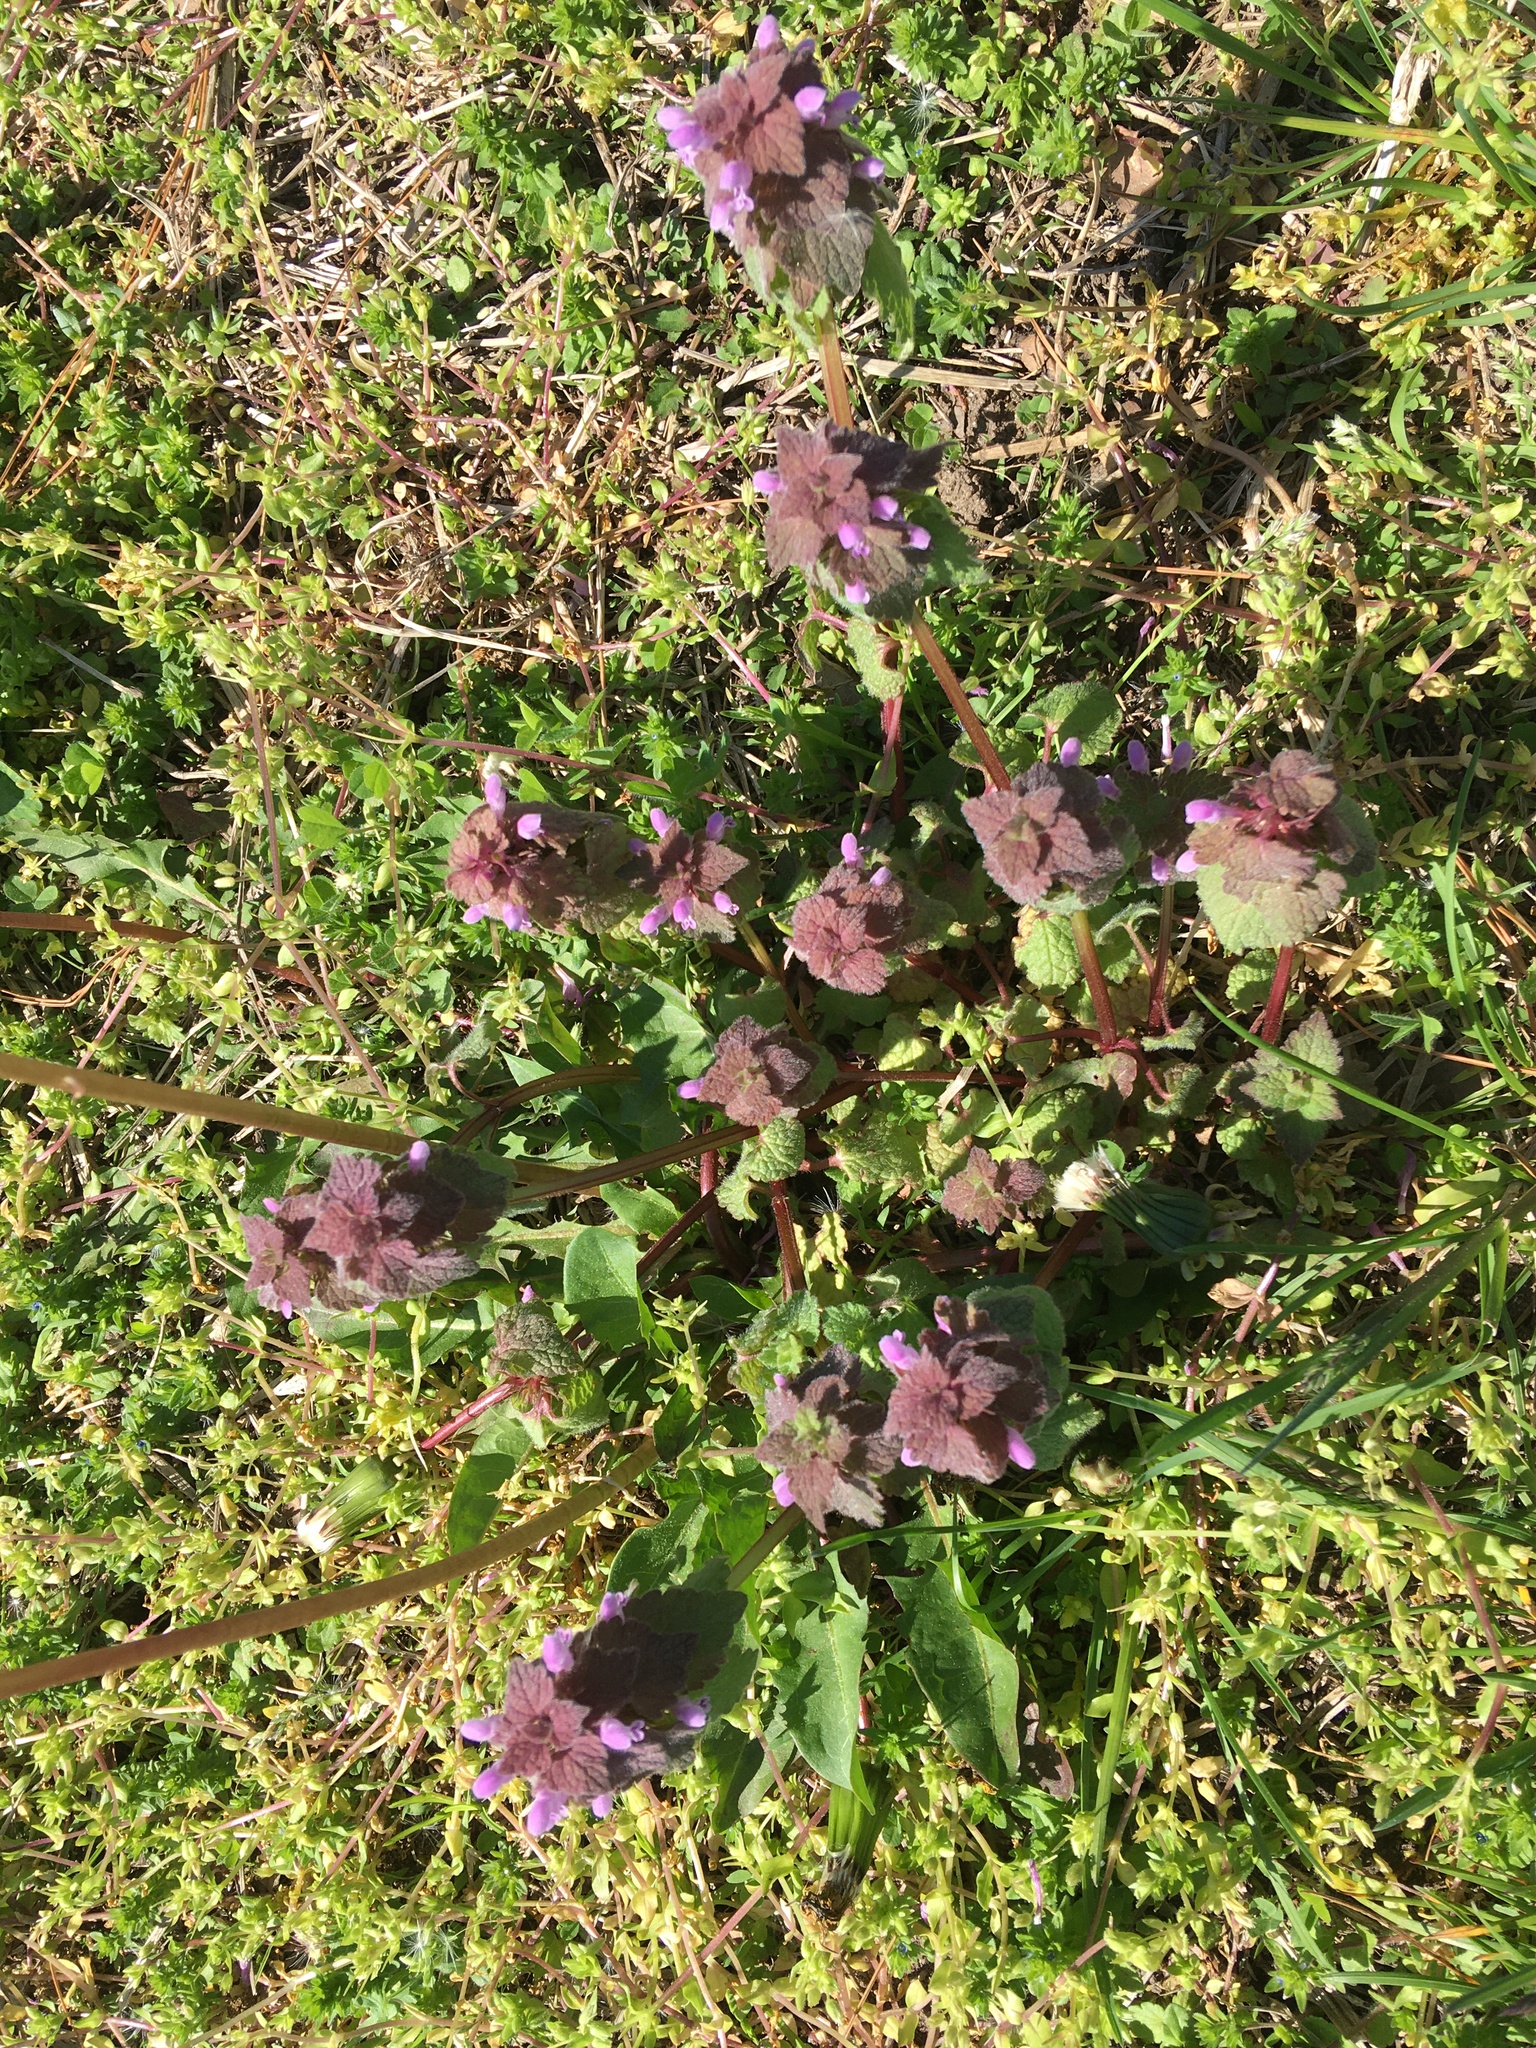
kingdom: Plantae
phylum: Tracheophyta
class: Magnoliopsida
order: Lamiales
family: Lamiaceae
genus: Lamium
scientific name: Lamium purpureum
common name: Red dead-nettle
